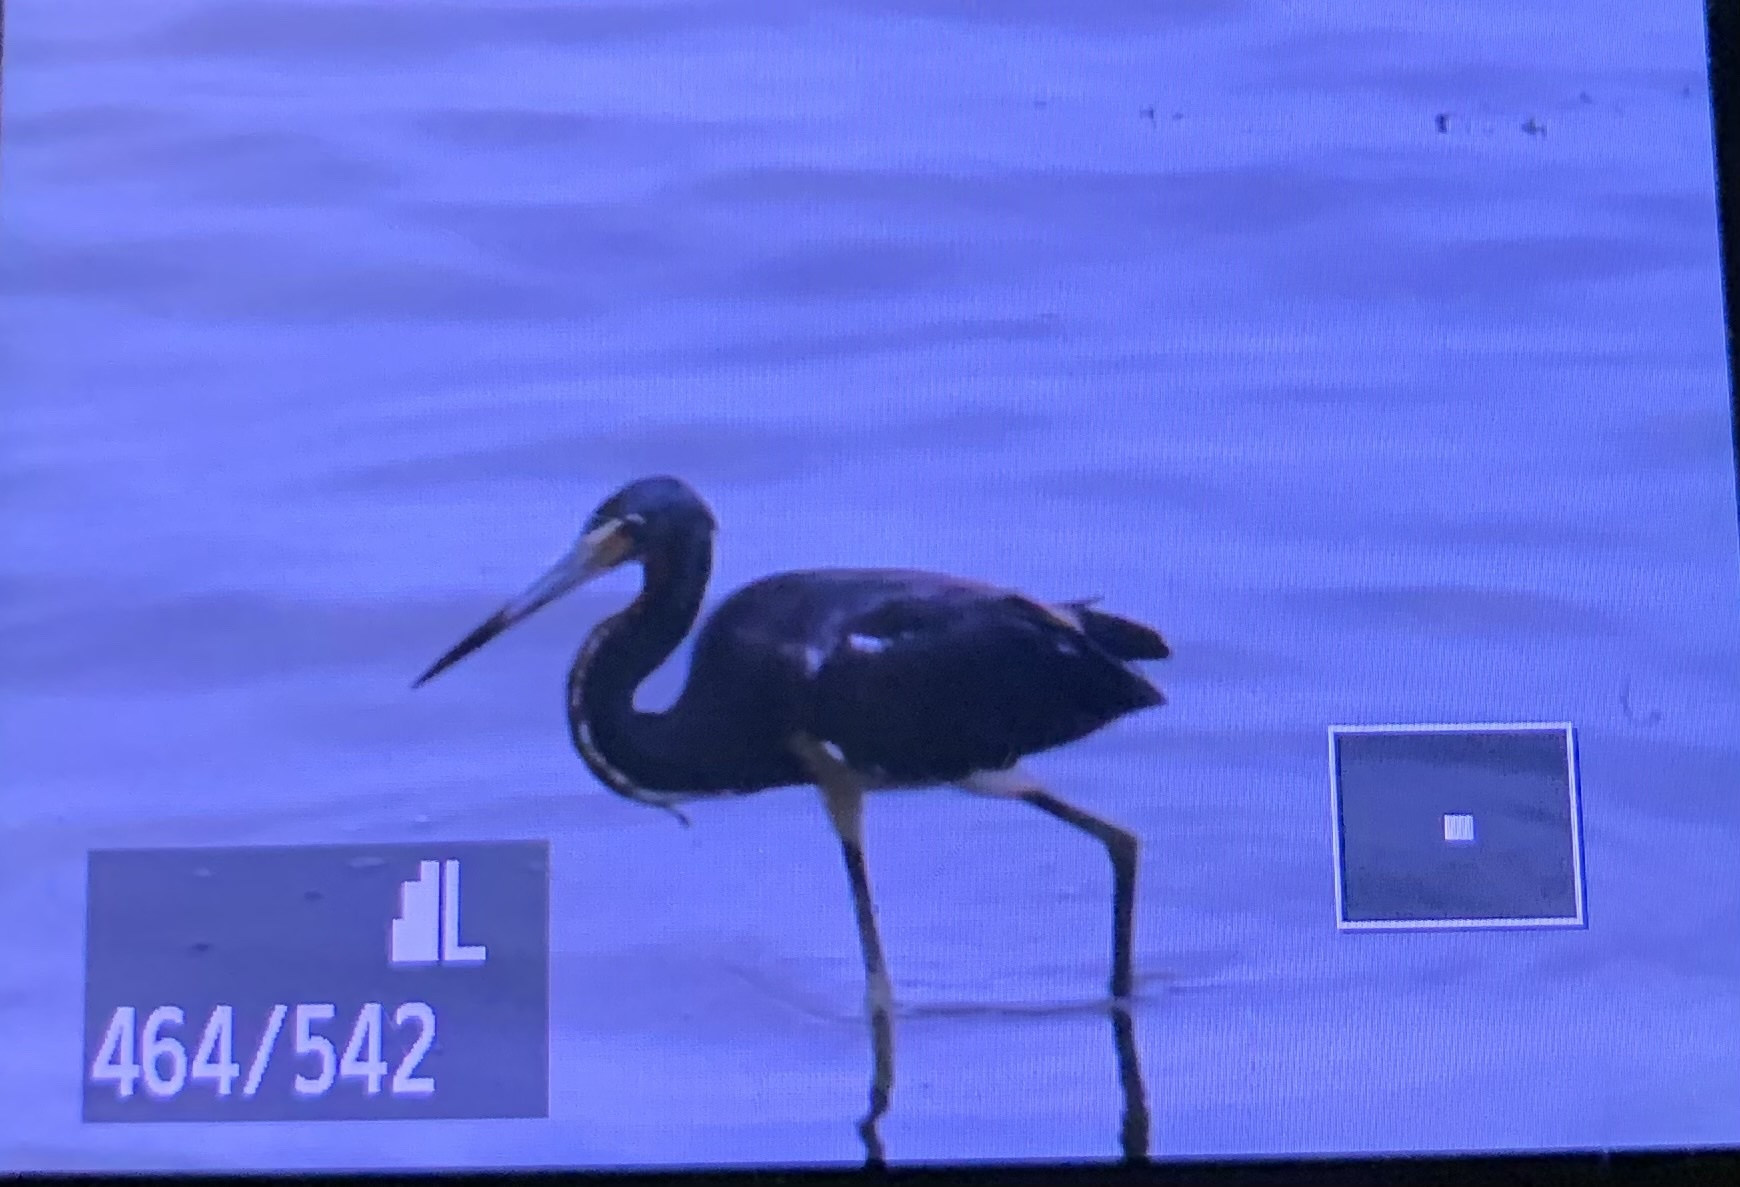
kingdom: Animalia
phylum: Chordata
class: Aves
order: Pelecaniformes
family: Ardeidae
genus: Egretta
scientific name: Egretta tricolor
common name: Tricolored heron
